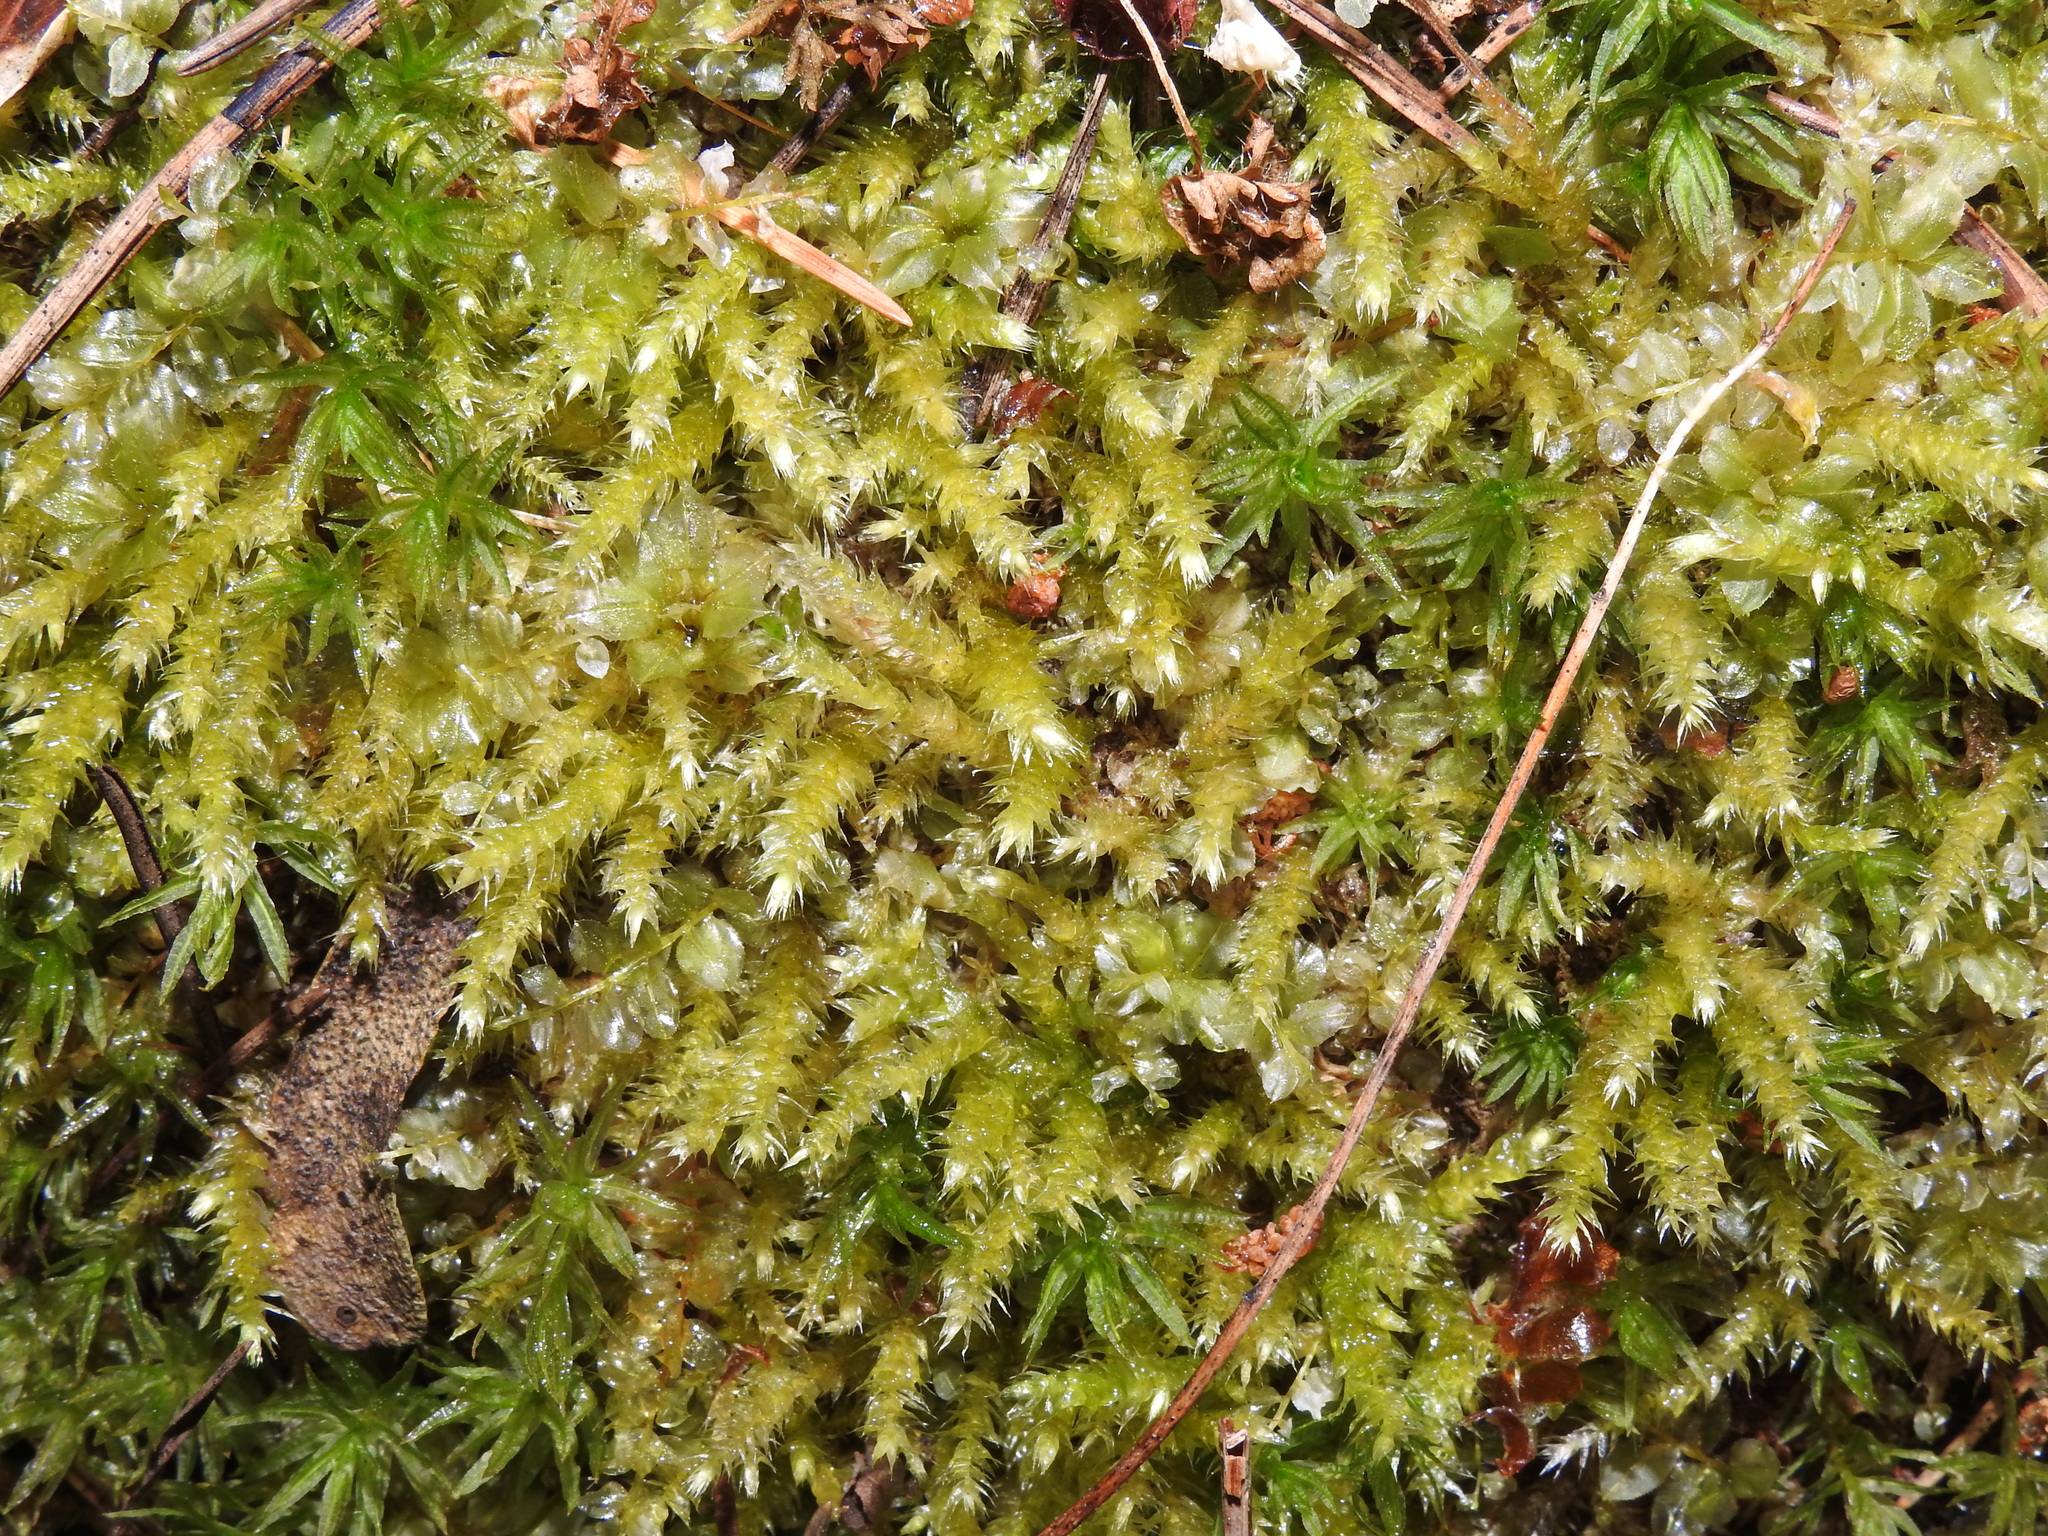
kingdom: Plantae
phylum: Bryophyta
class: Bryopsida
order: Hypnales
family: Brachytheciaceae
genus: Eurhynchium
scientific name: Eurhynchium striatum
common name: Common striated feather-moss
